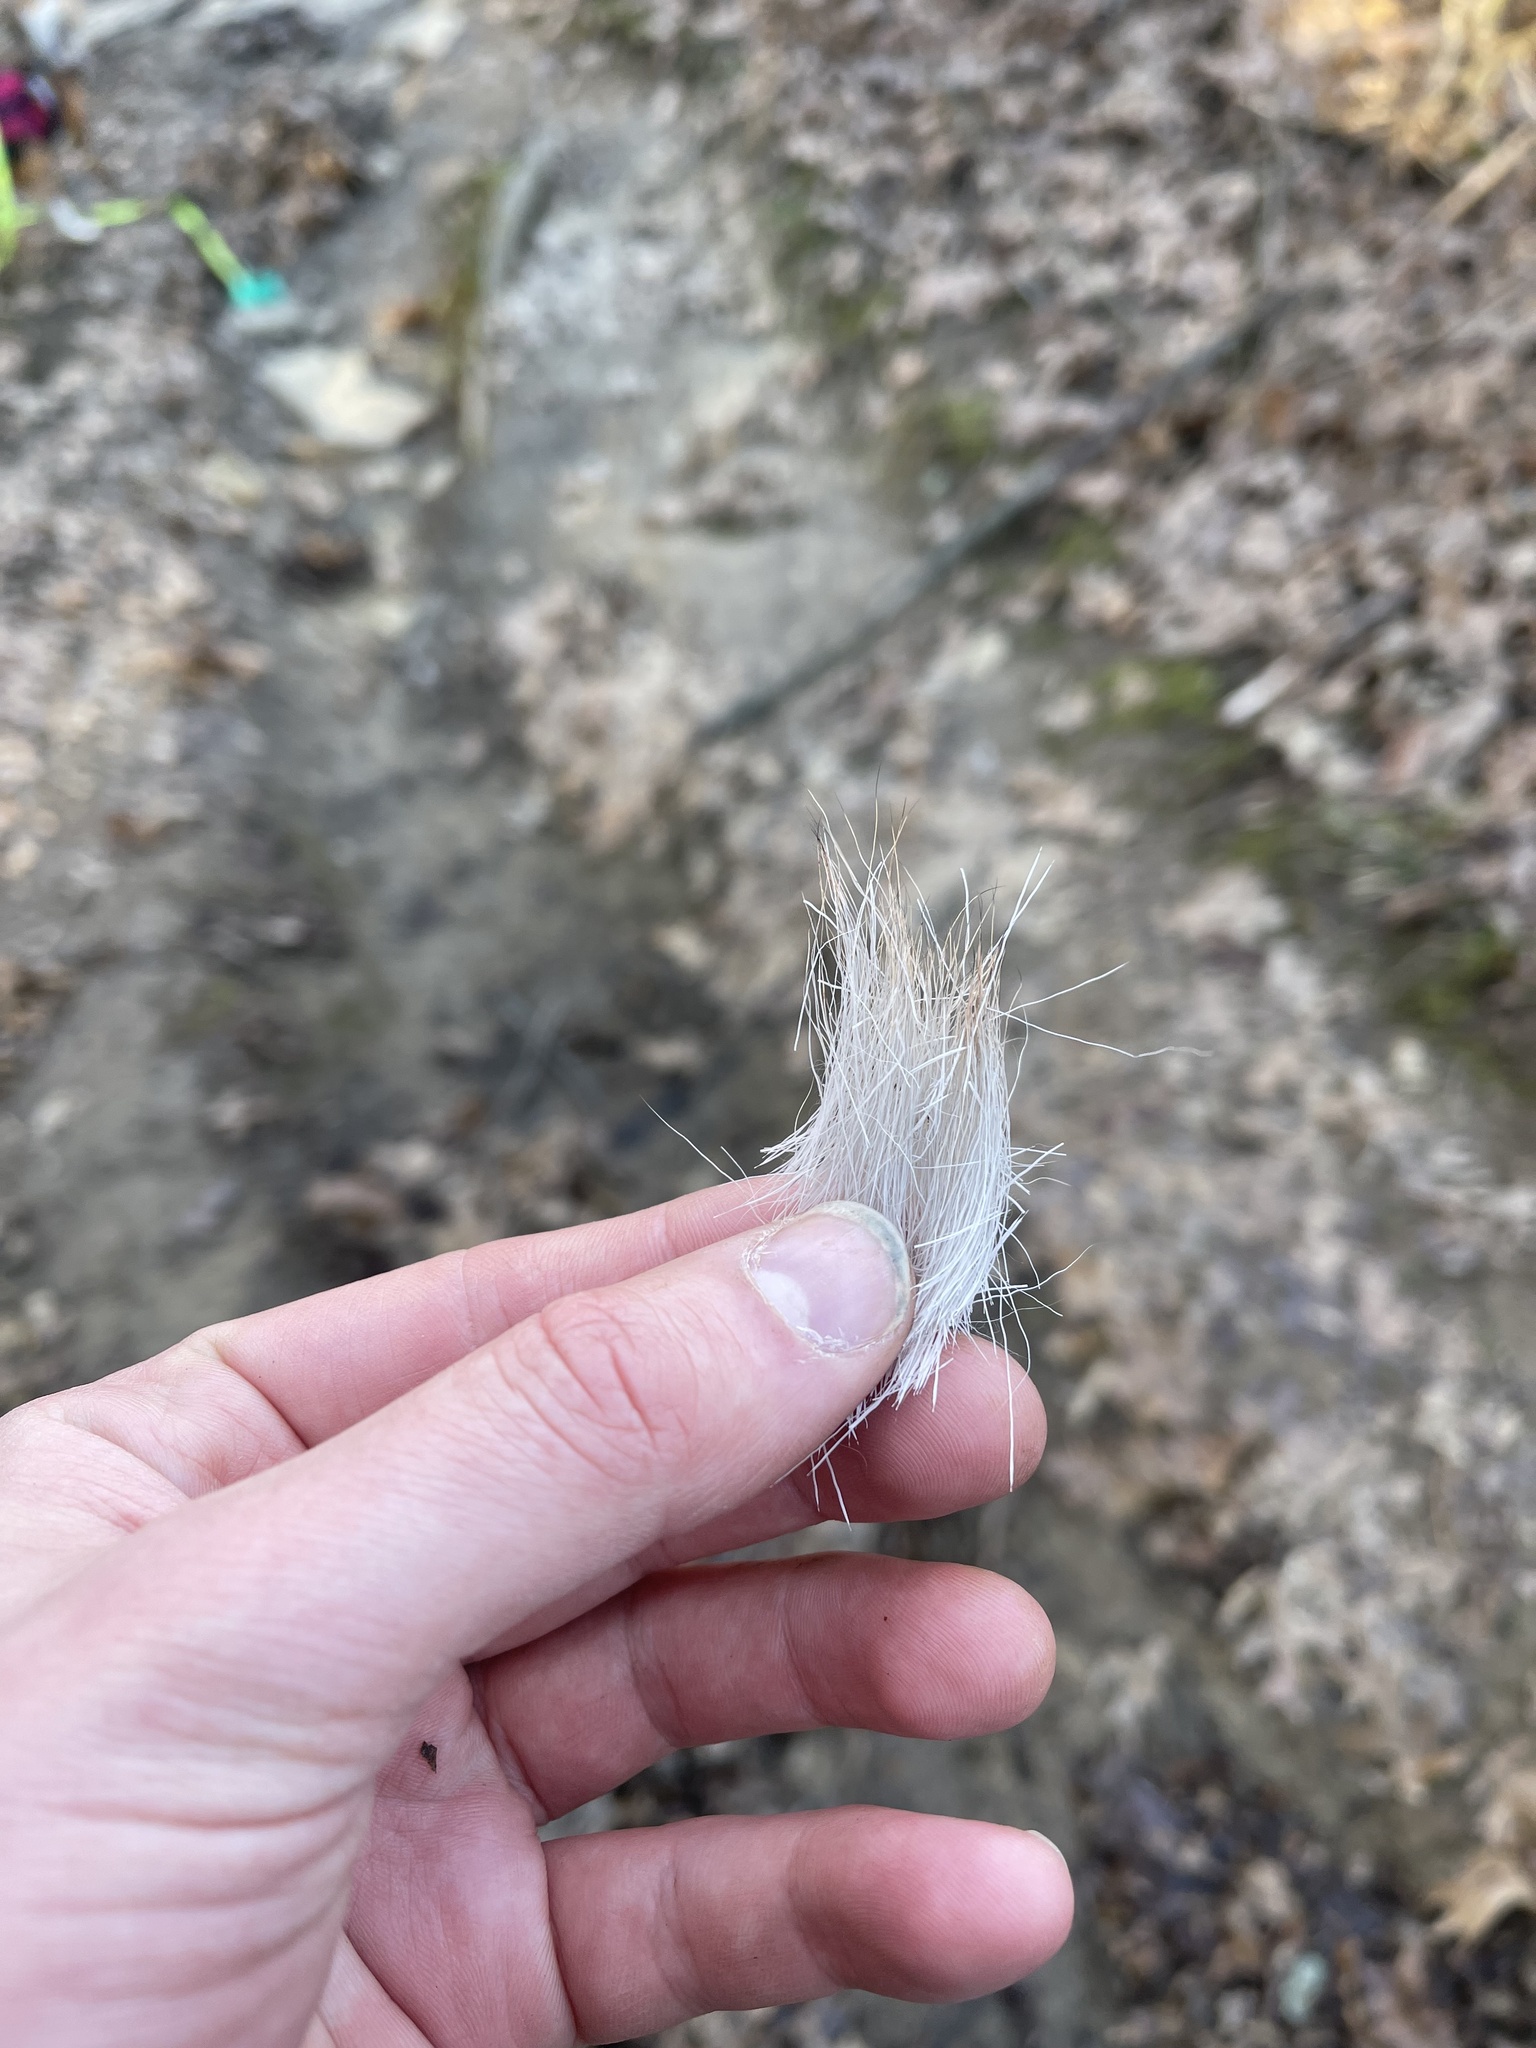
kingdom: Animalia
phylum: Chordata
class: Mammalia
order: Artiodactyla
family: Cervidae
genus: Odocoileus
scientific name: Odocoileus virginianus
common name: White-tailed deer
